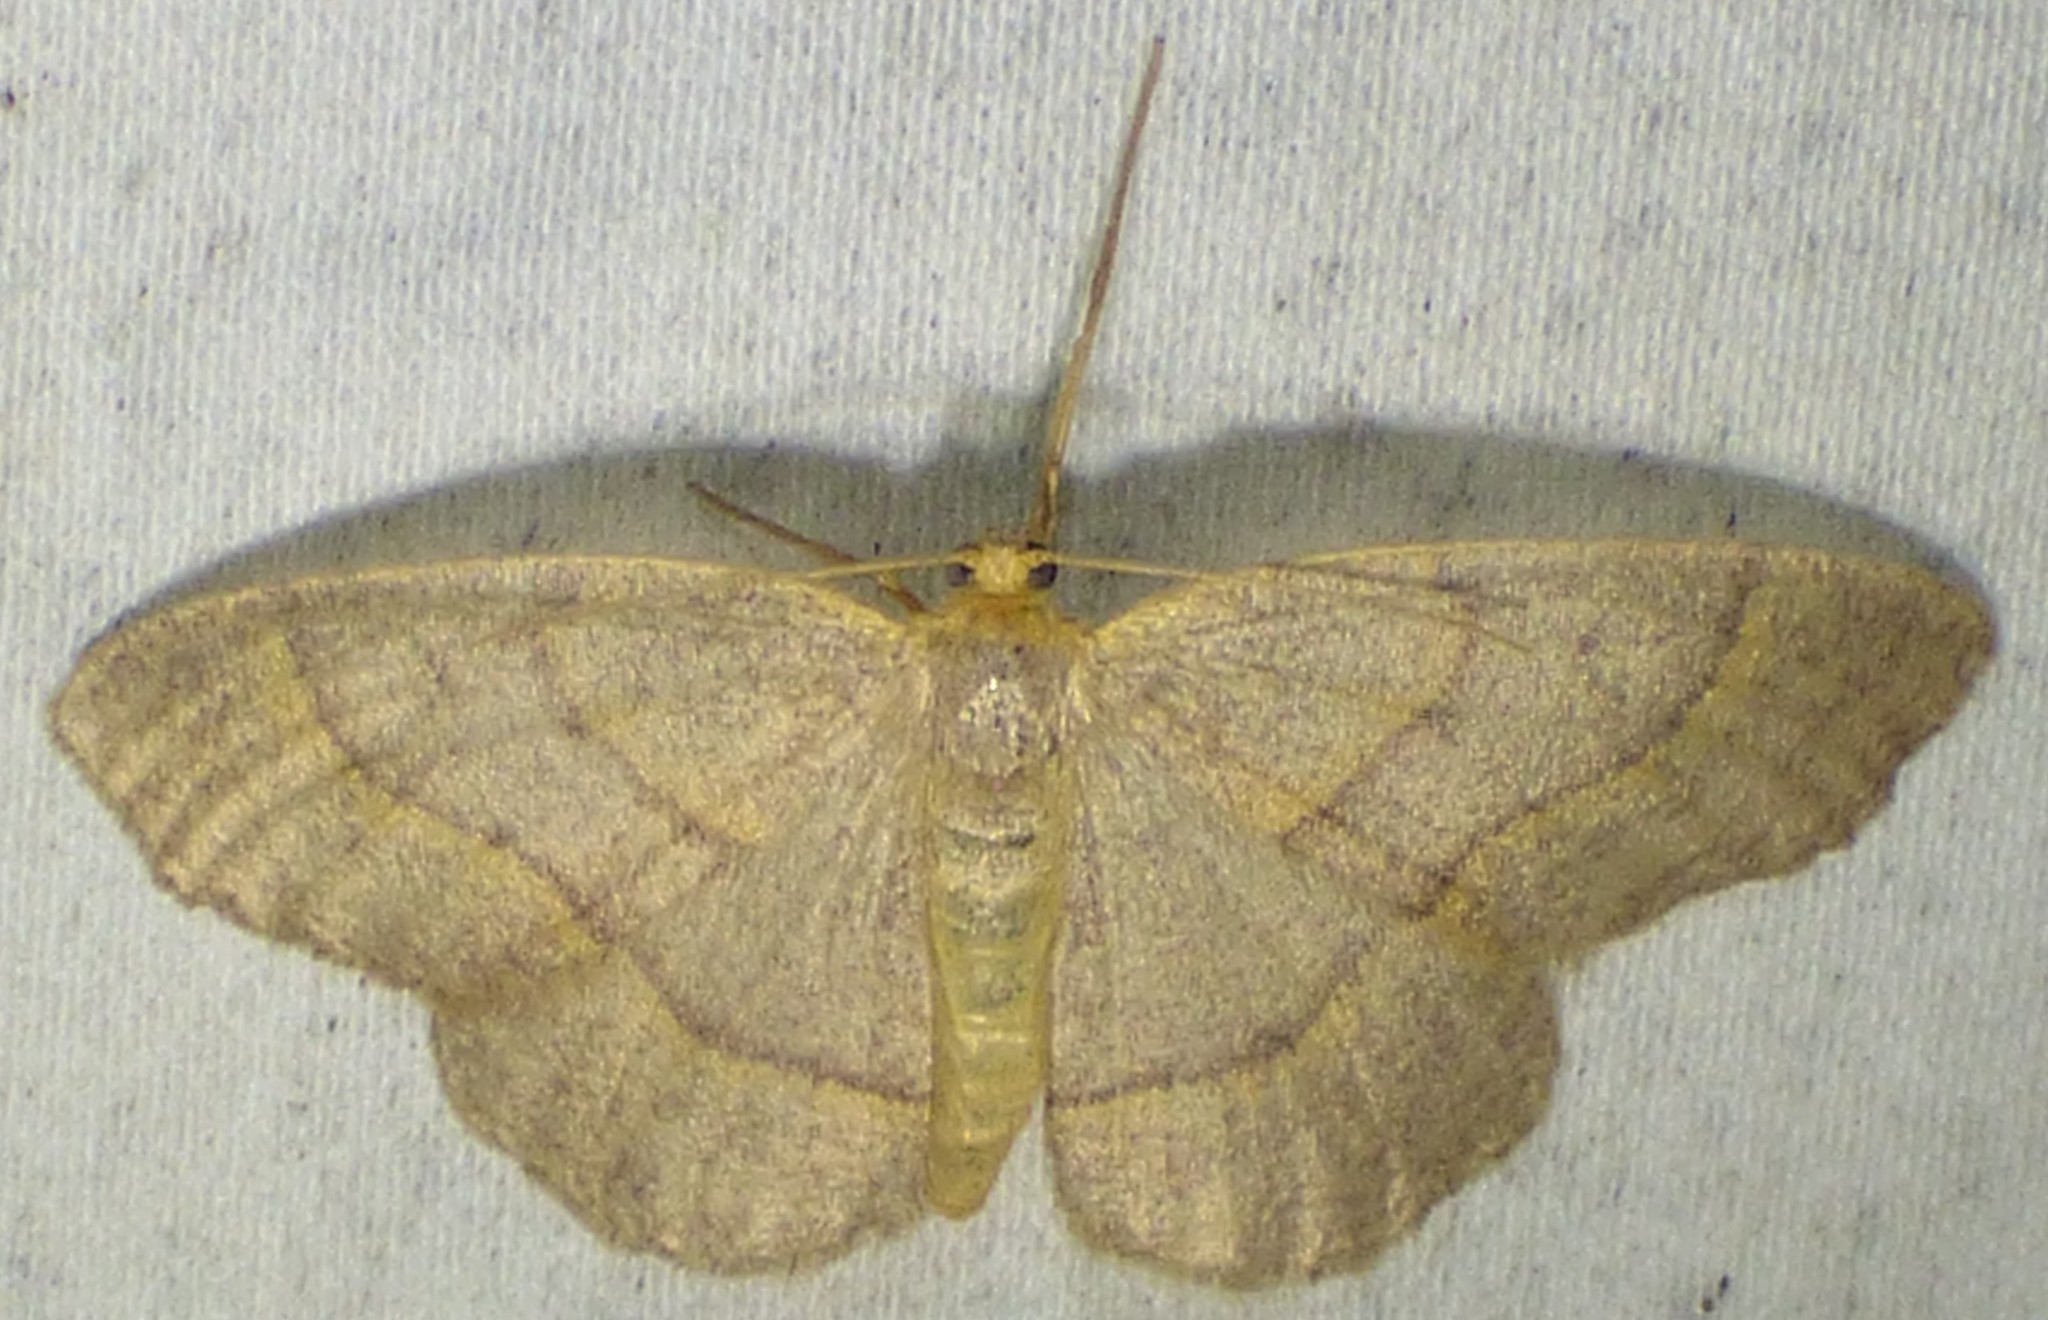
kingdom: Animalia
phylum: Arthropoda
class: Insecta
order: Lepidoptera
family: Geometridae
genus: Lambdina
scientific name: Lambdina fervidaria
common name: Curve-lined looper moth
